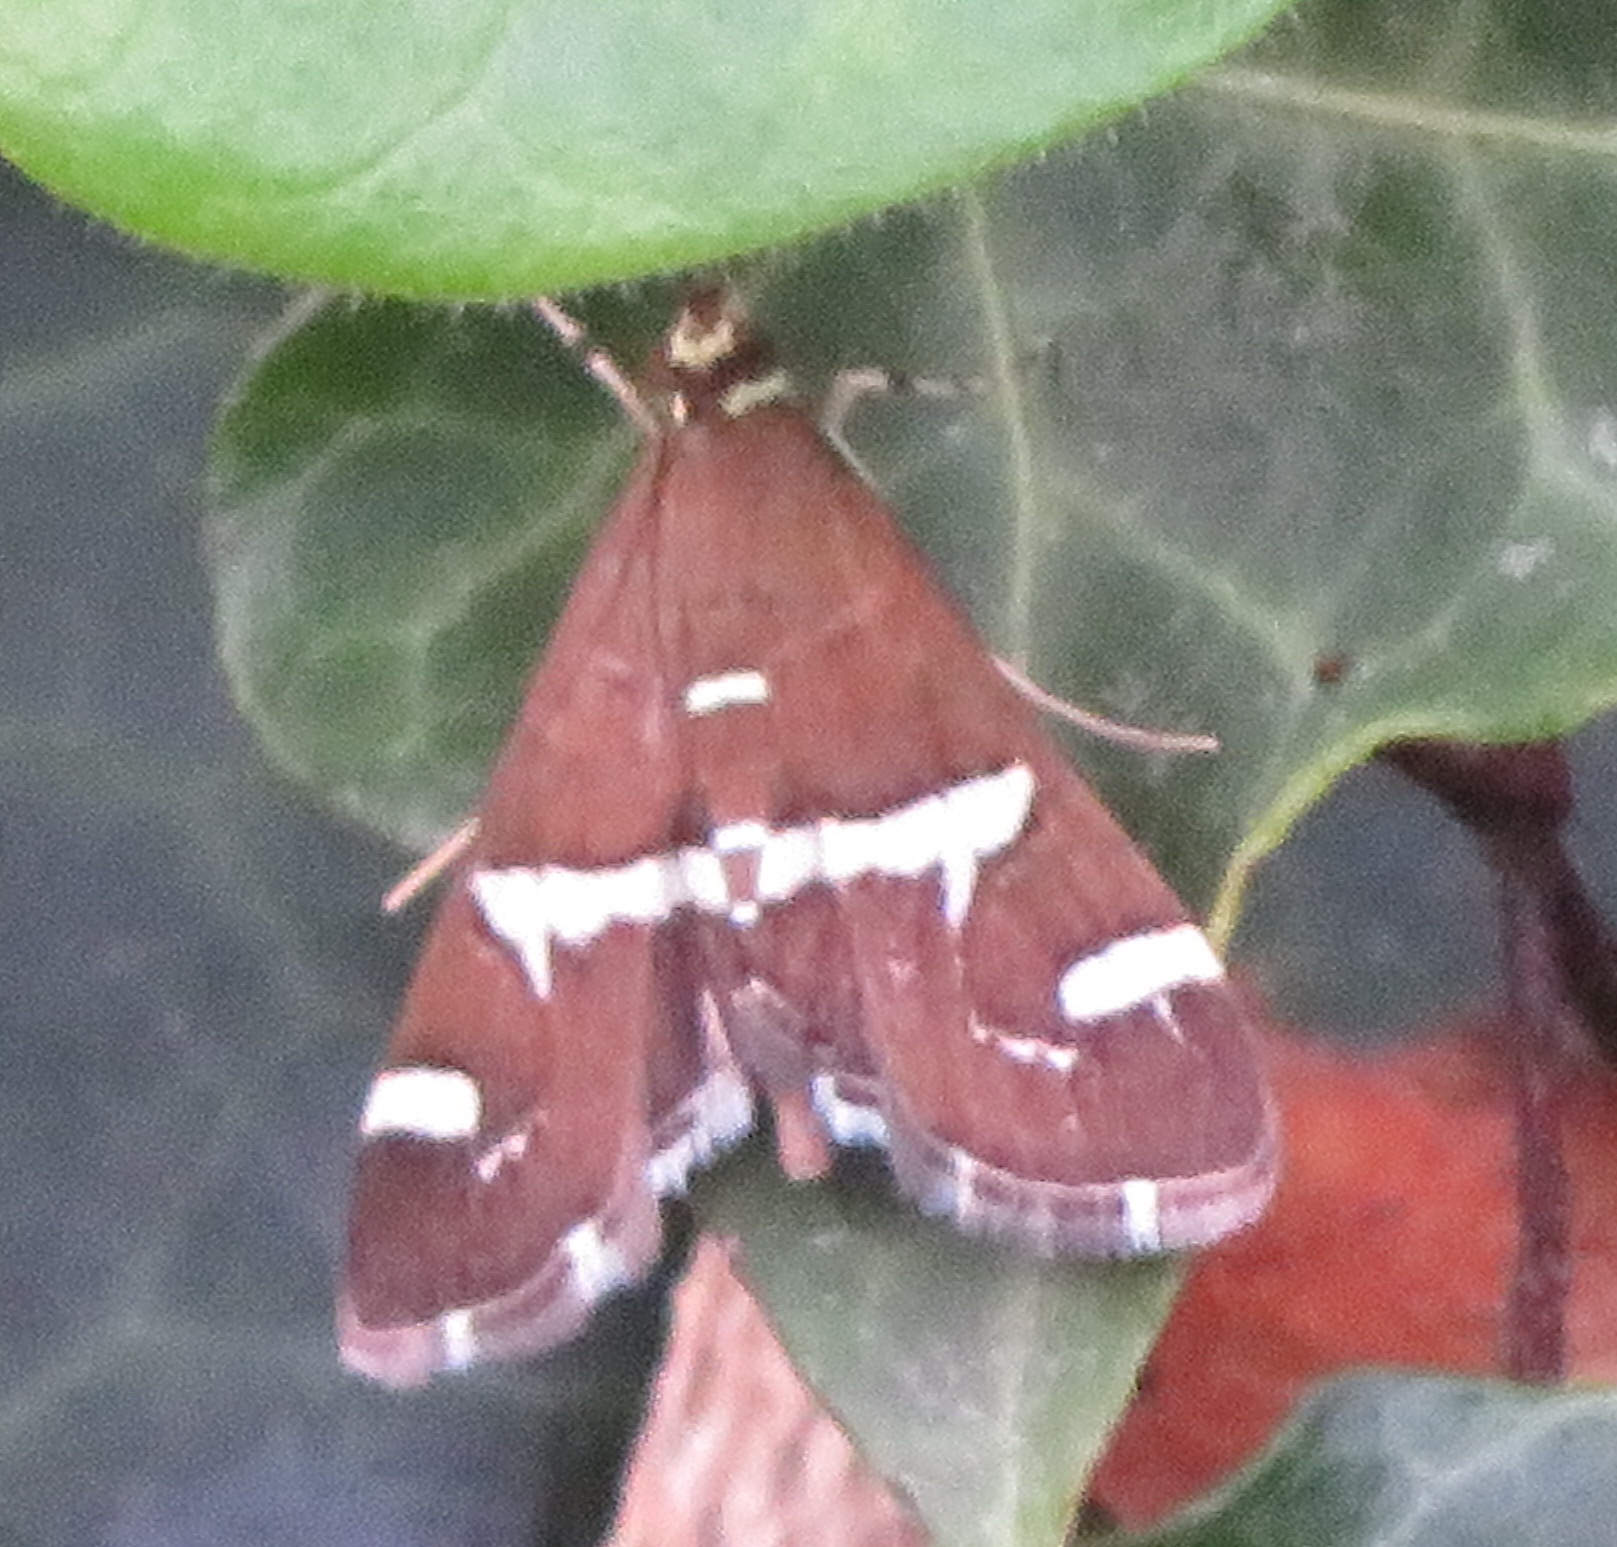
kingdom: Animalia
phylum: Arthropoda
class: Insecta
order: Lepidoptera
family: Crambidae
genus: Spoladea
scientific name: Spoladea recurvalis
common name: Beet webworm moth
